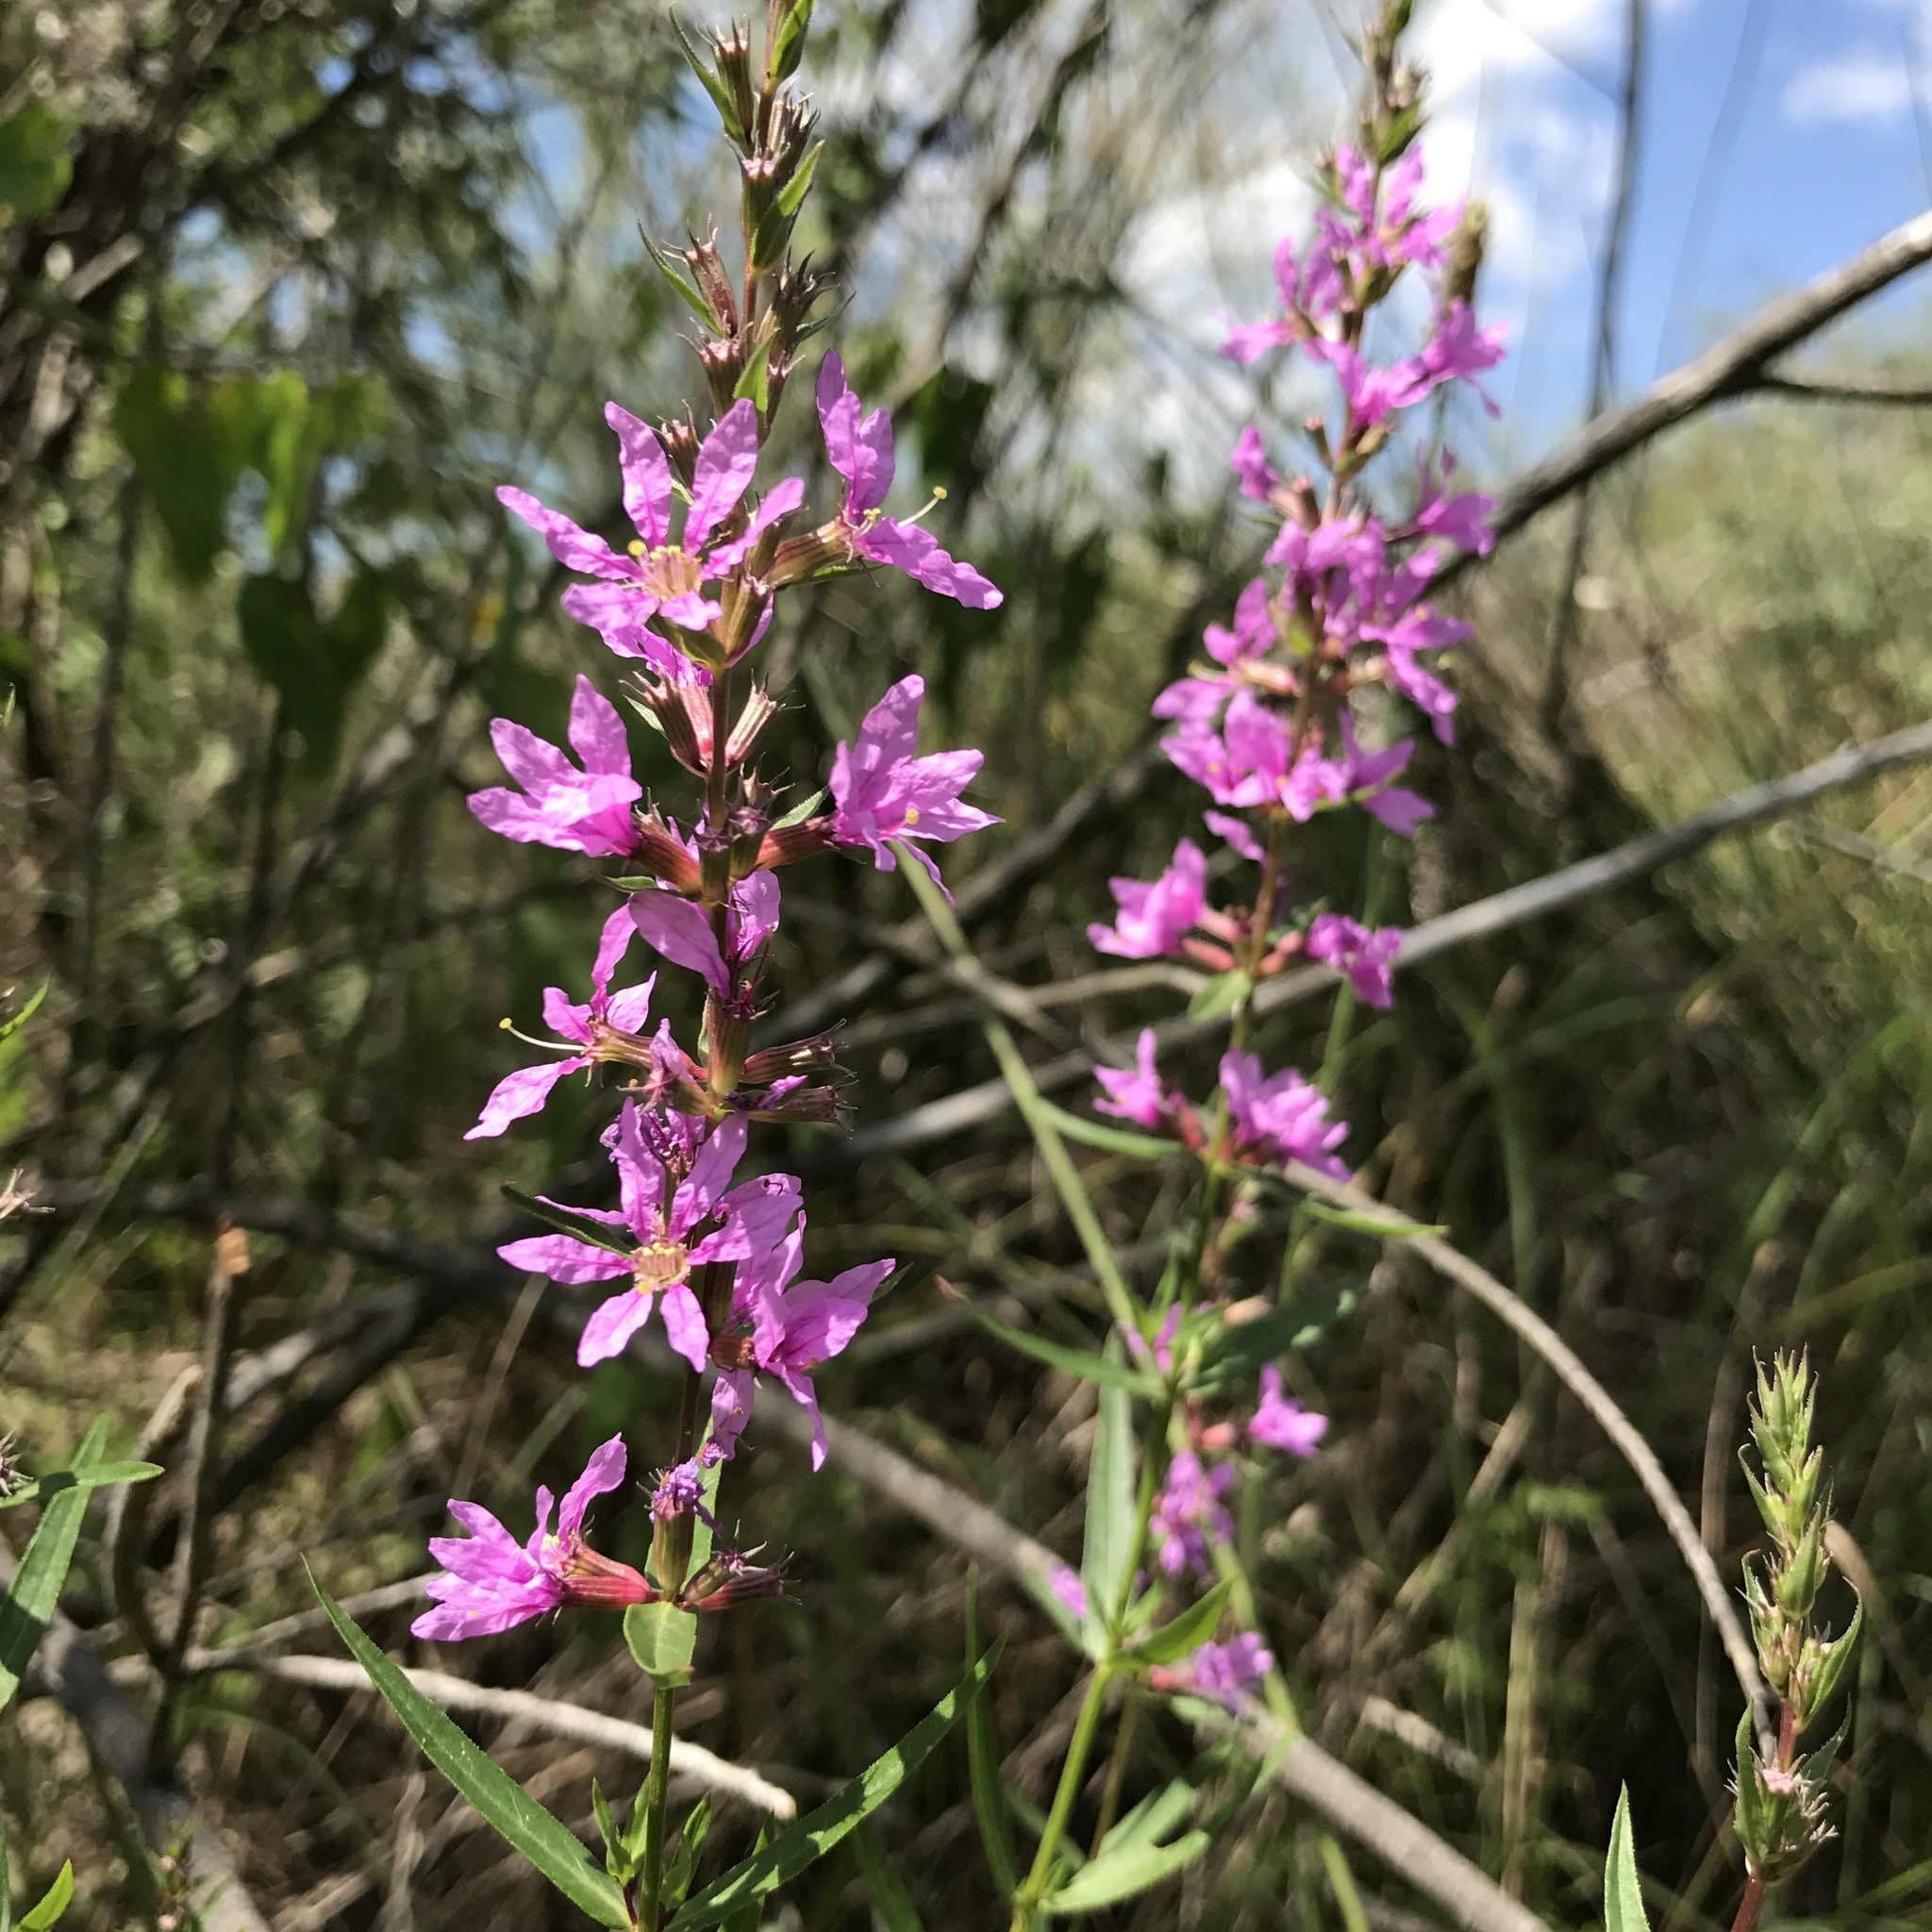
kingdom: Plantae
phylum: Tracheophyta
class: Magnoliopsida
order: Myrtales
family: Lythraceae
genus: Lythrum
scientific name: Lythrum salicaria
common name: Purple loosestrife
